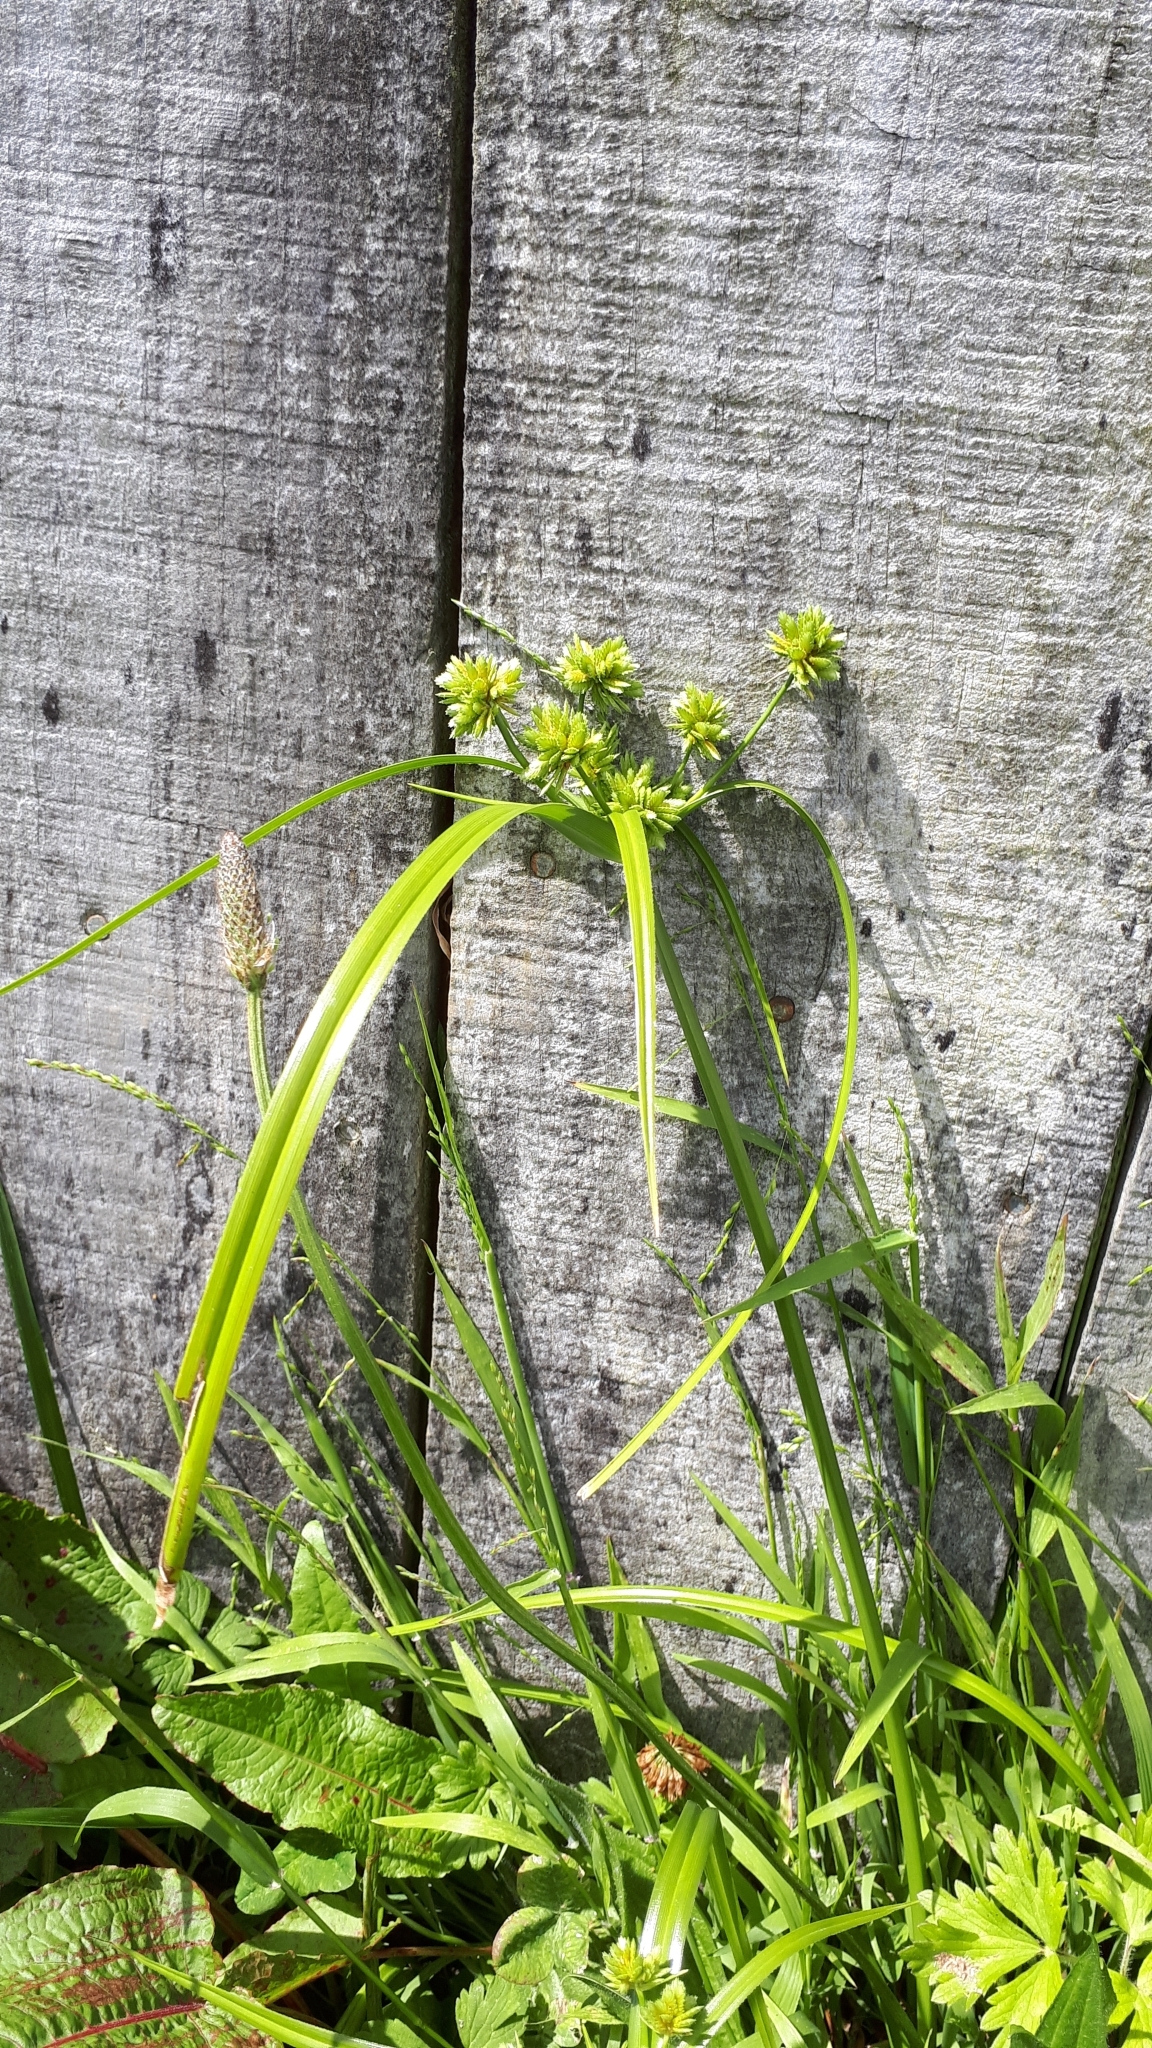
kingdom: Plantae
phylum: Tracheophyta
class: Liliopsida
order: Poales
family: Cyperaceae
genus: Cyperus
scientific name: Cyperus eragrostis
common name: Tall flatsedge
